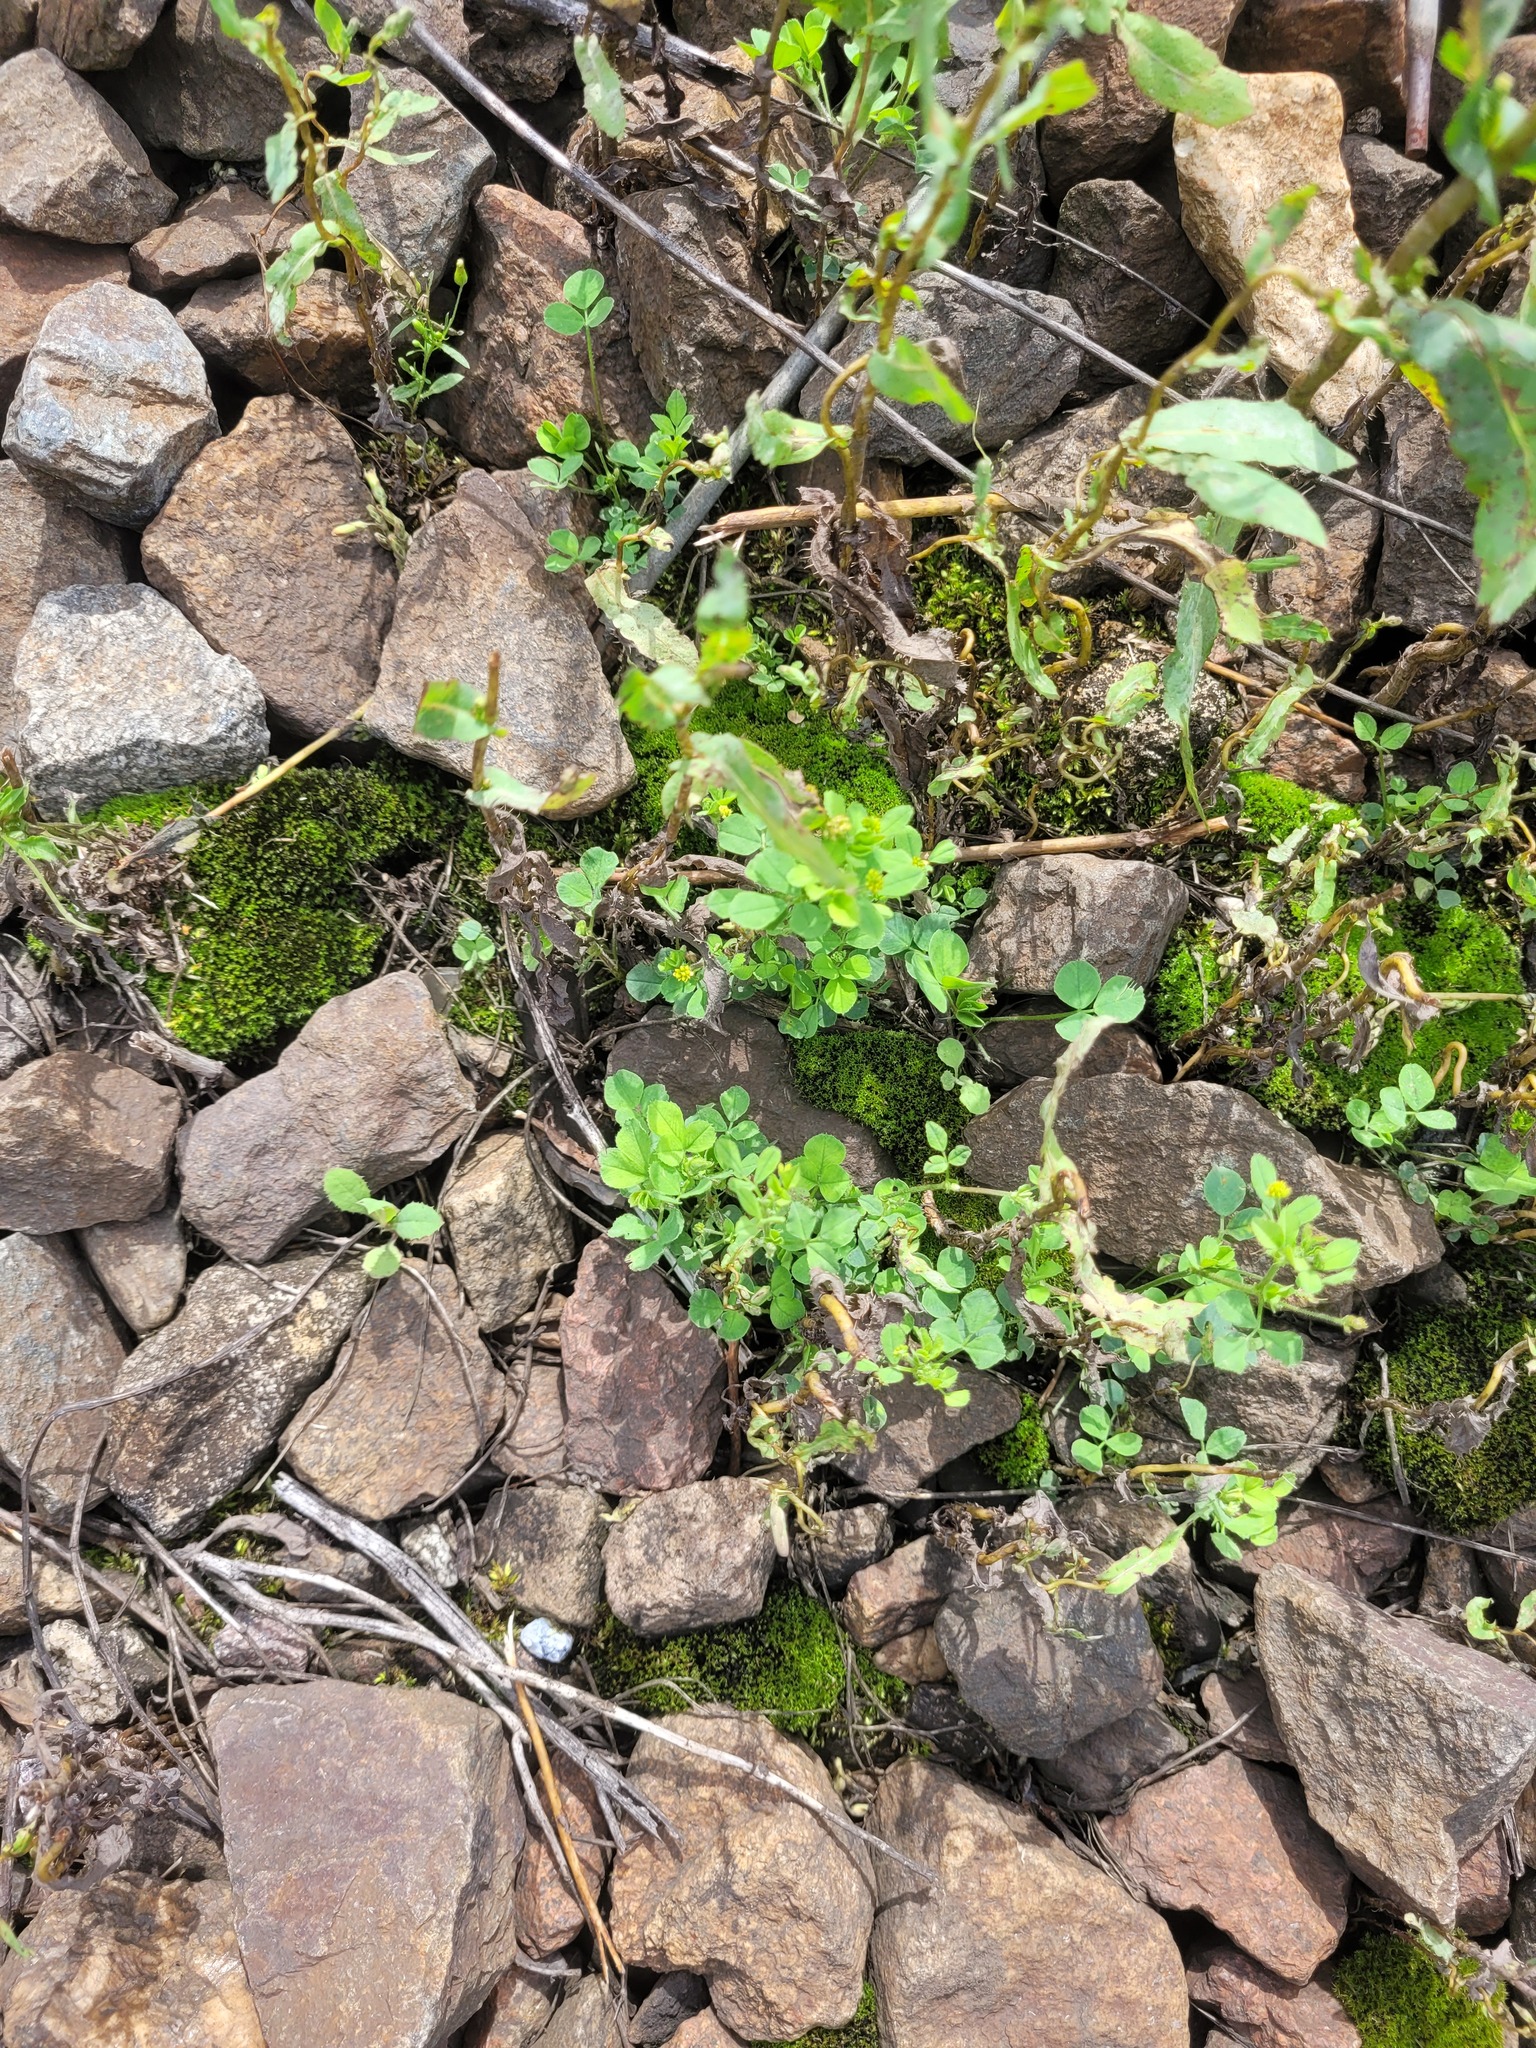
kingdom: Plantae
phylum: Tracheophyta
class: Magnoliopsida
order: Fabales
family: Fabaceae
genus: Medicago
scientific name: Medicago lupulina
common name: Black medick
